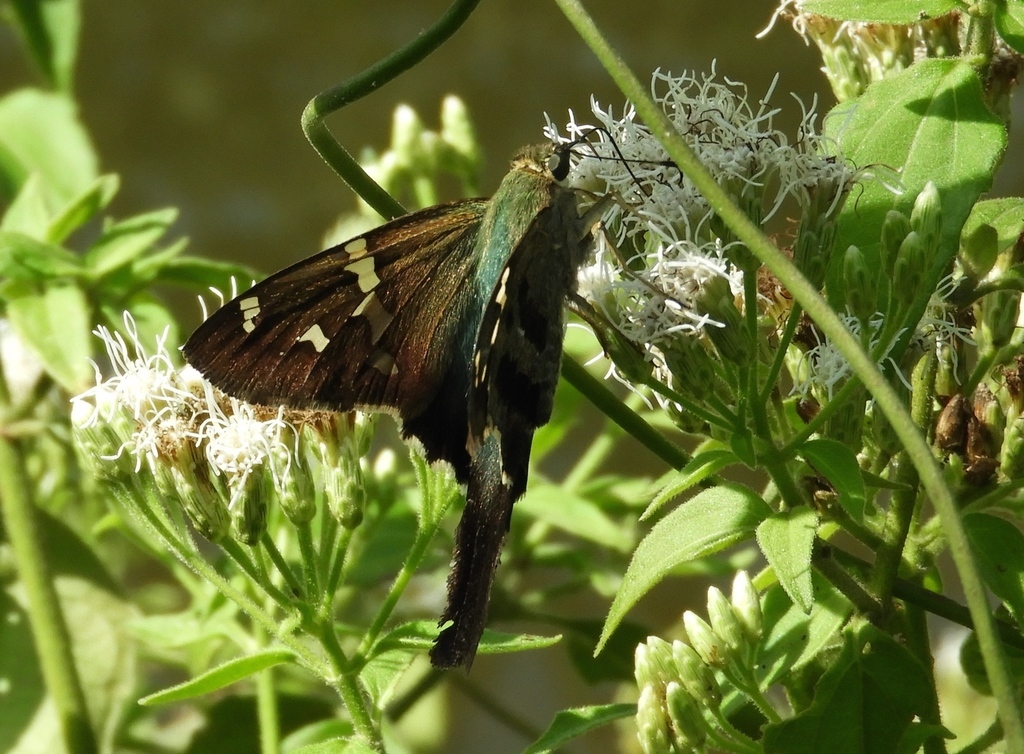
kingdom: Animalia
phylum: Arthropoda
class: Insecta
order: Lepidoptera
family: Hesperiidae
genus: Urbanus
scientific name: Urbanus proteus
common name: Long-tailed skipper
